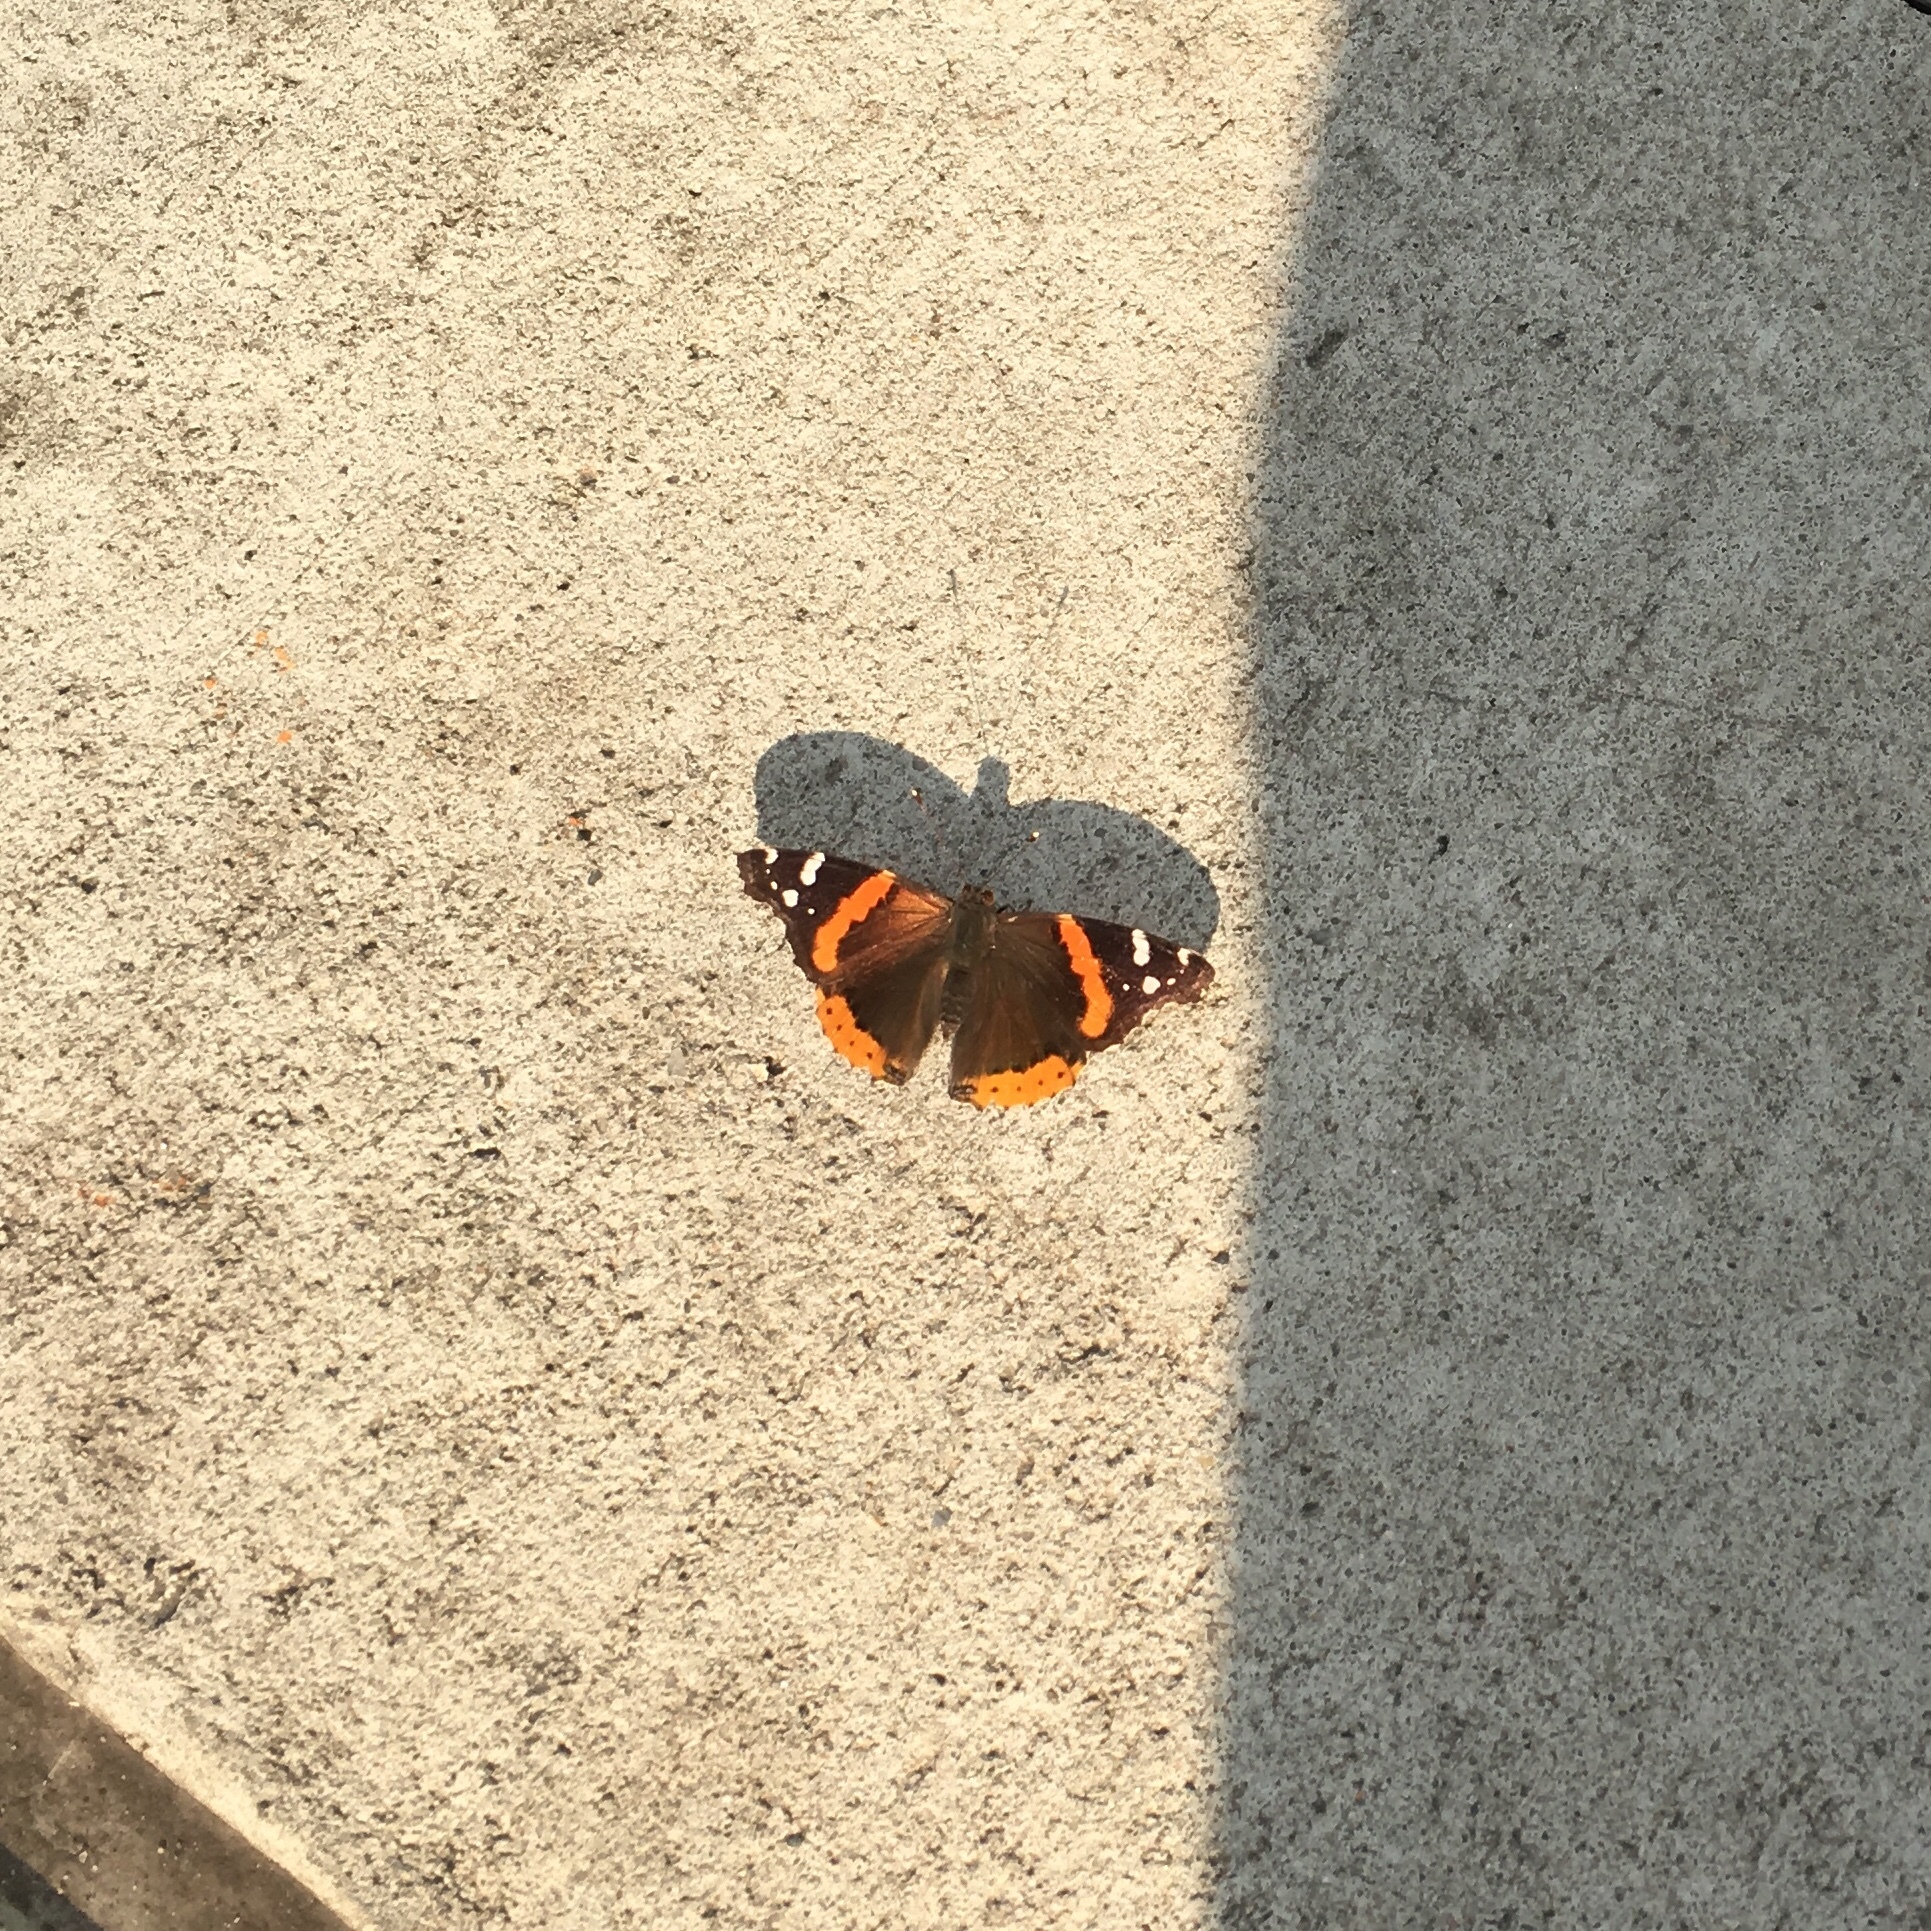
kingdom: Animalia
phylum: Arthropoda
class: Insecta
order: Lepidoptera
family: Nymphalidae
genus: Vanessa
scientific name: Vanessa atalanta
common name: Red admiral
